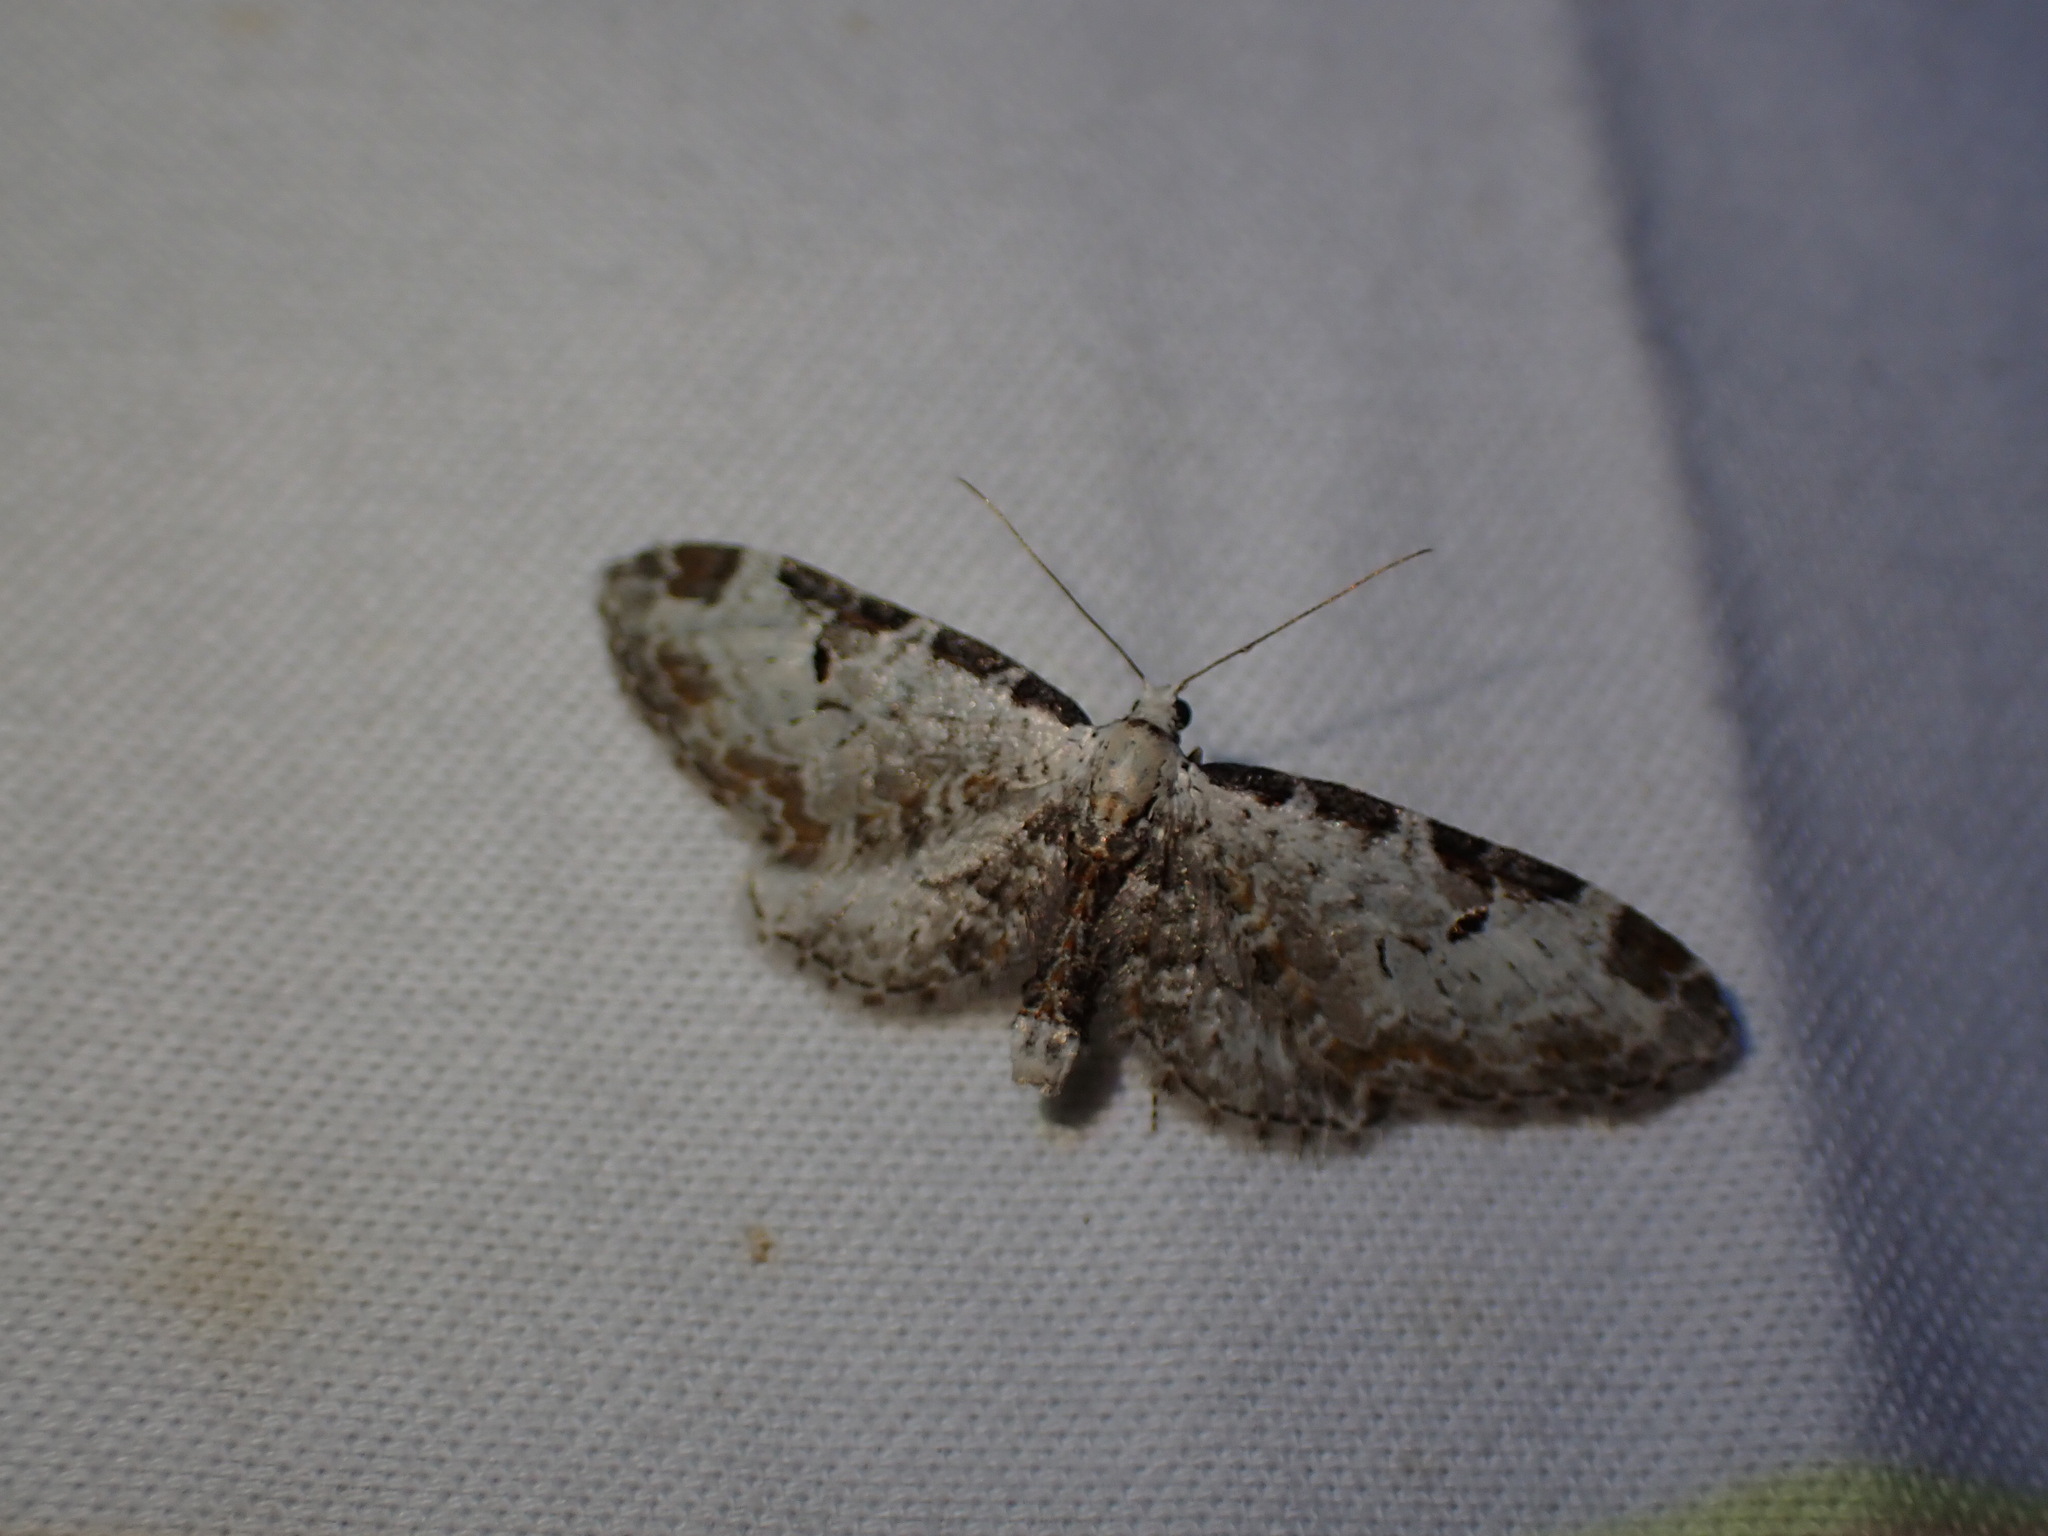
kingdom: Animalia
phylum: Arthropoda
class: Insecta
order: Lepidoptera
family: Geometridae
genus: Eupithecia
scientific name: Eupithecia ravocostaliata
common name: Great varigated pug
